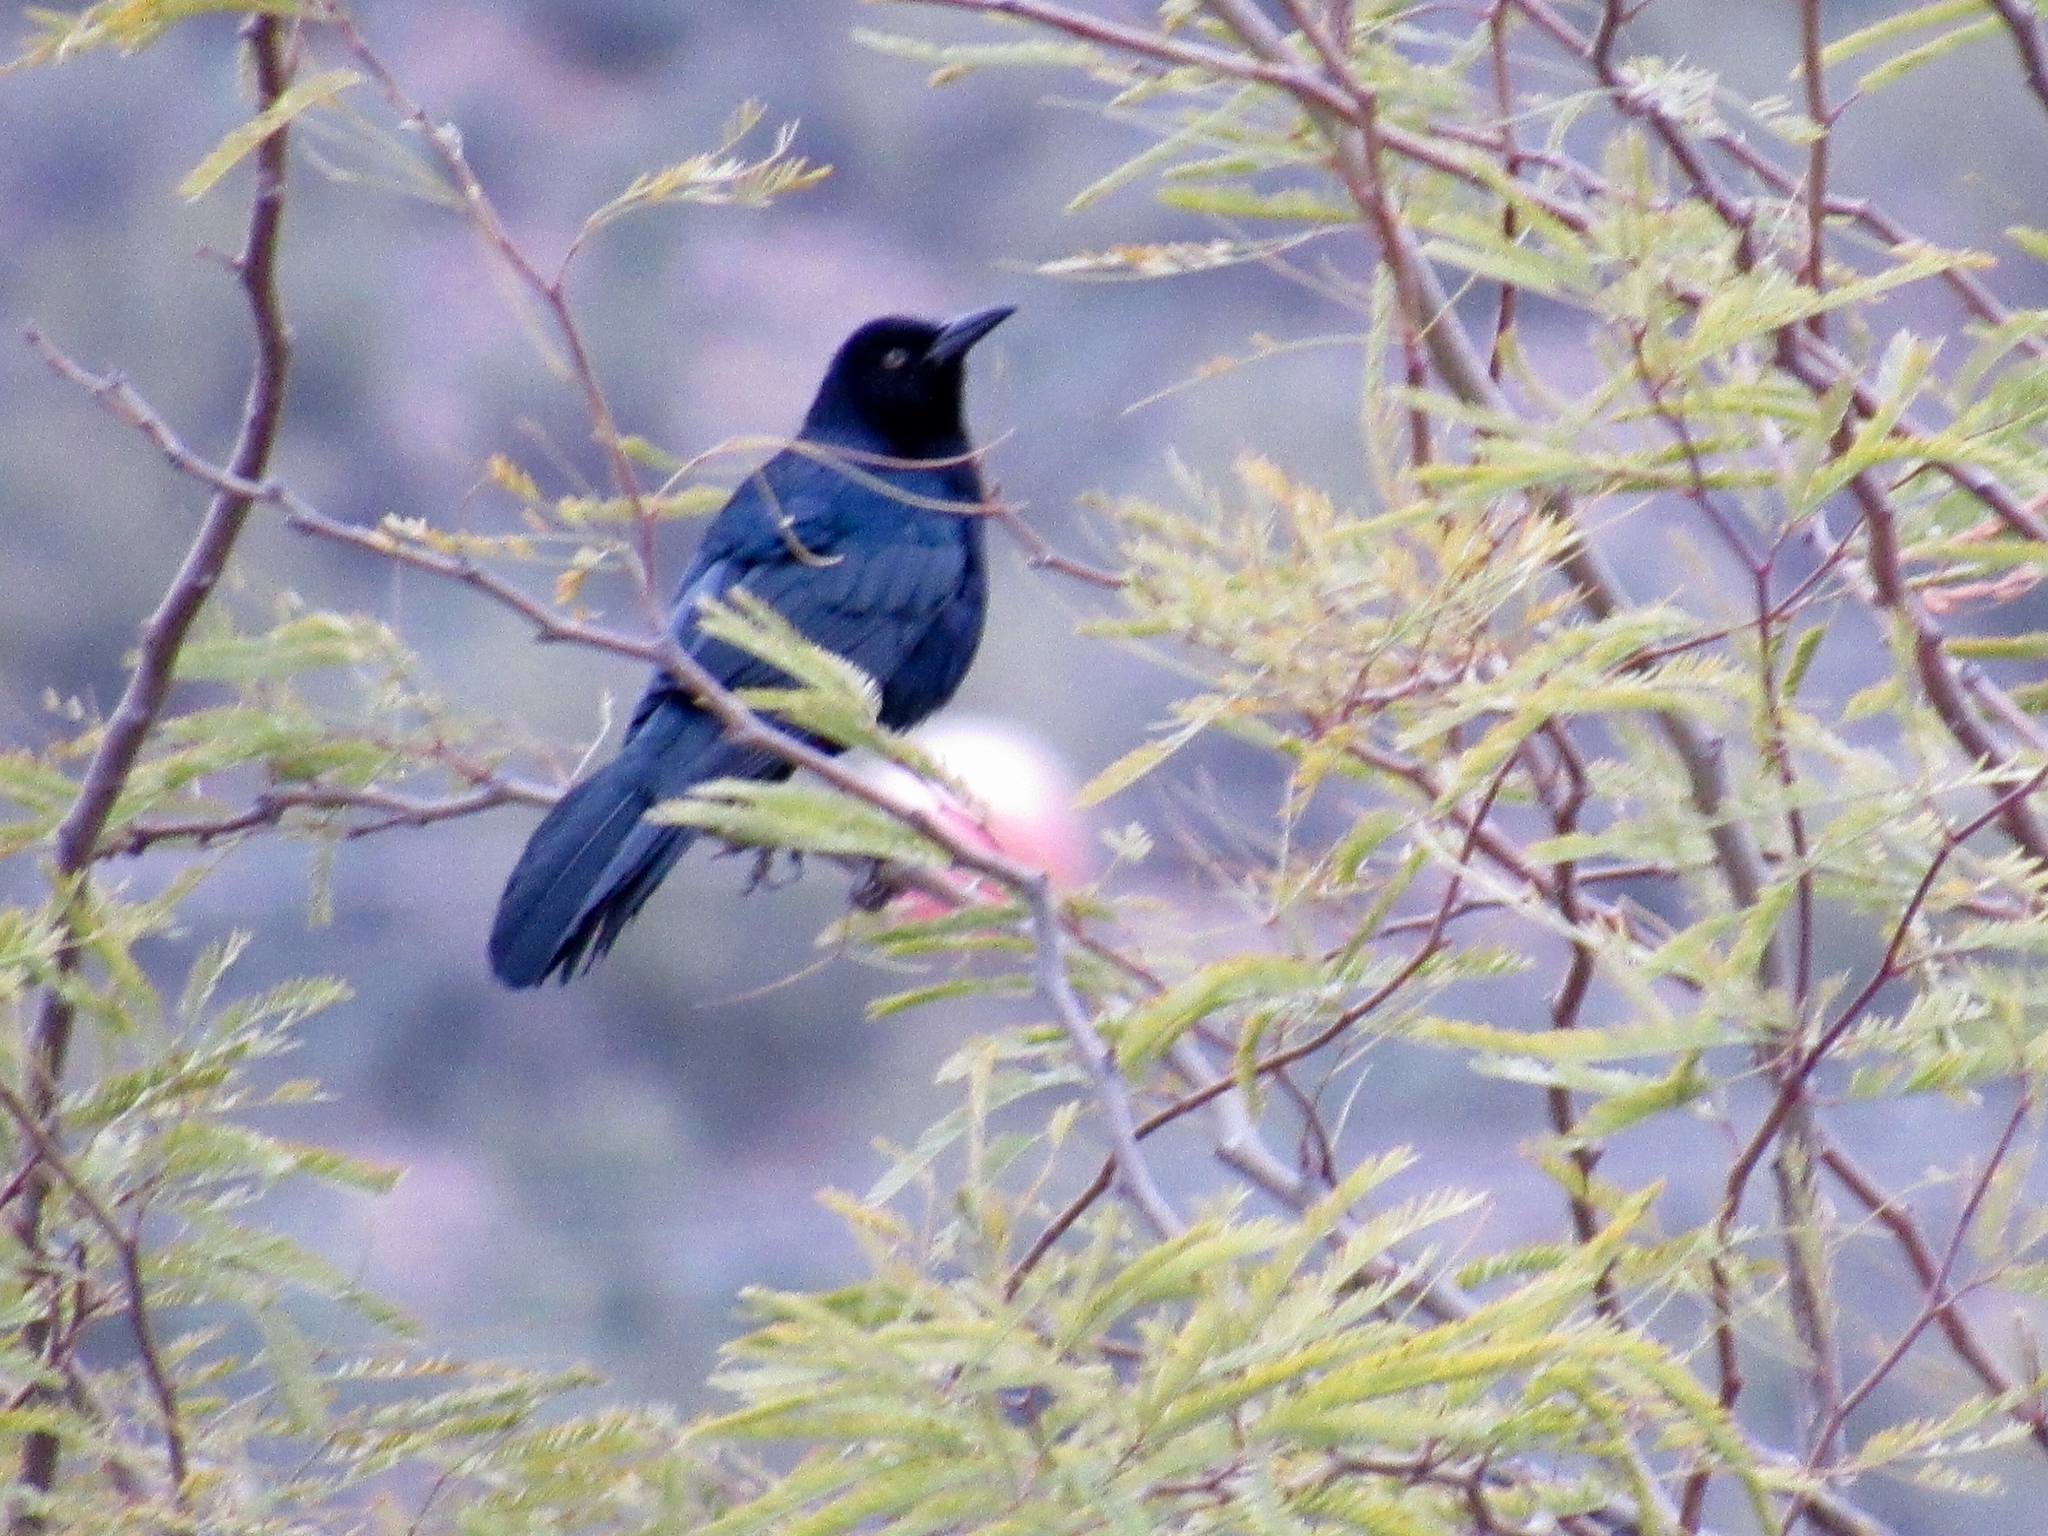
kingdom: Animalia
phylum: Chordata
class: Aves
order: Passeriformes
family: Icteridae
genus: Quiscalus
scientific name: Quiscalus mexicanus
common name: Great-tailed grackle
